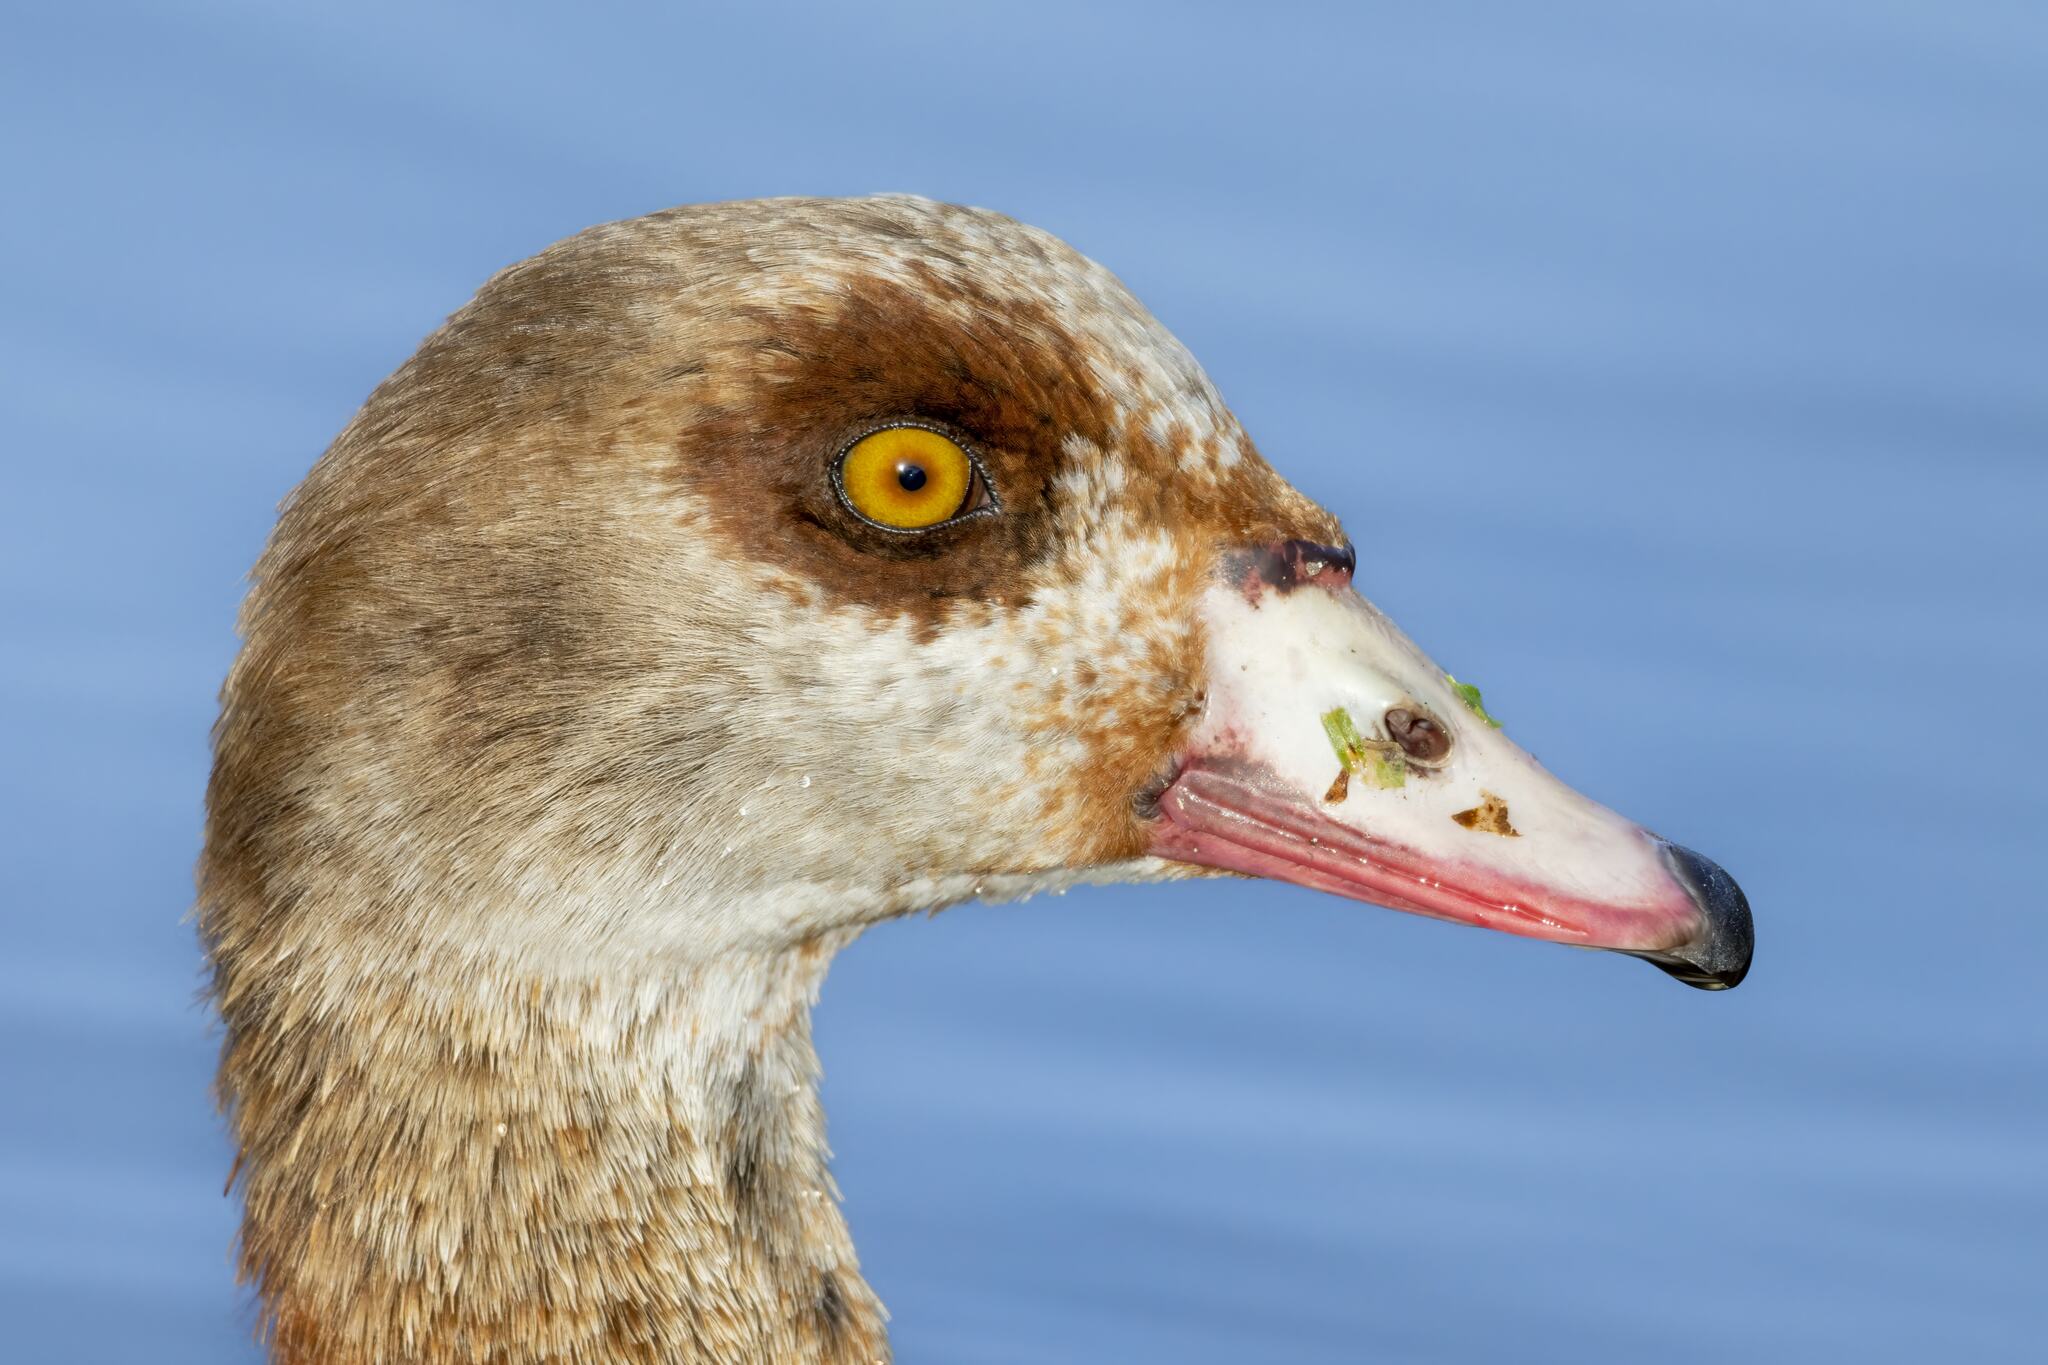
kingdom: Animalia
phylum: Chordata
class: Aves
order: Anseriformes
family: Anatidae
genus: Alopochen
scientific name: Alopochen aegyptiaca
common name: Egyptian goose
